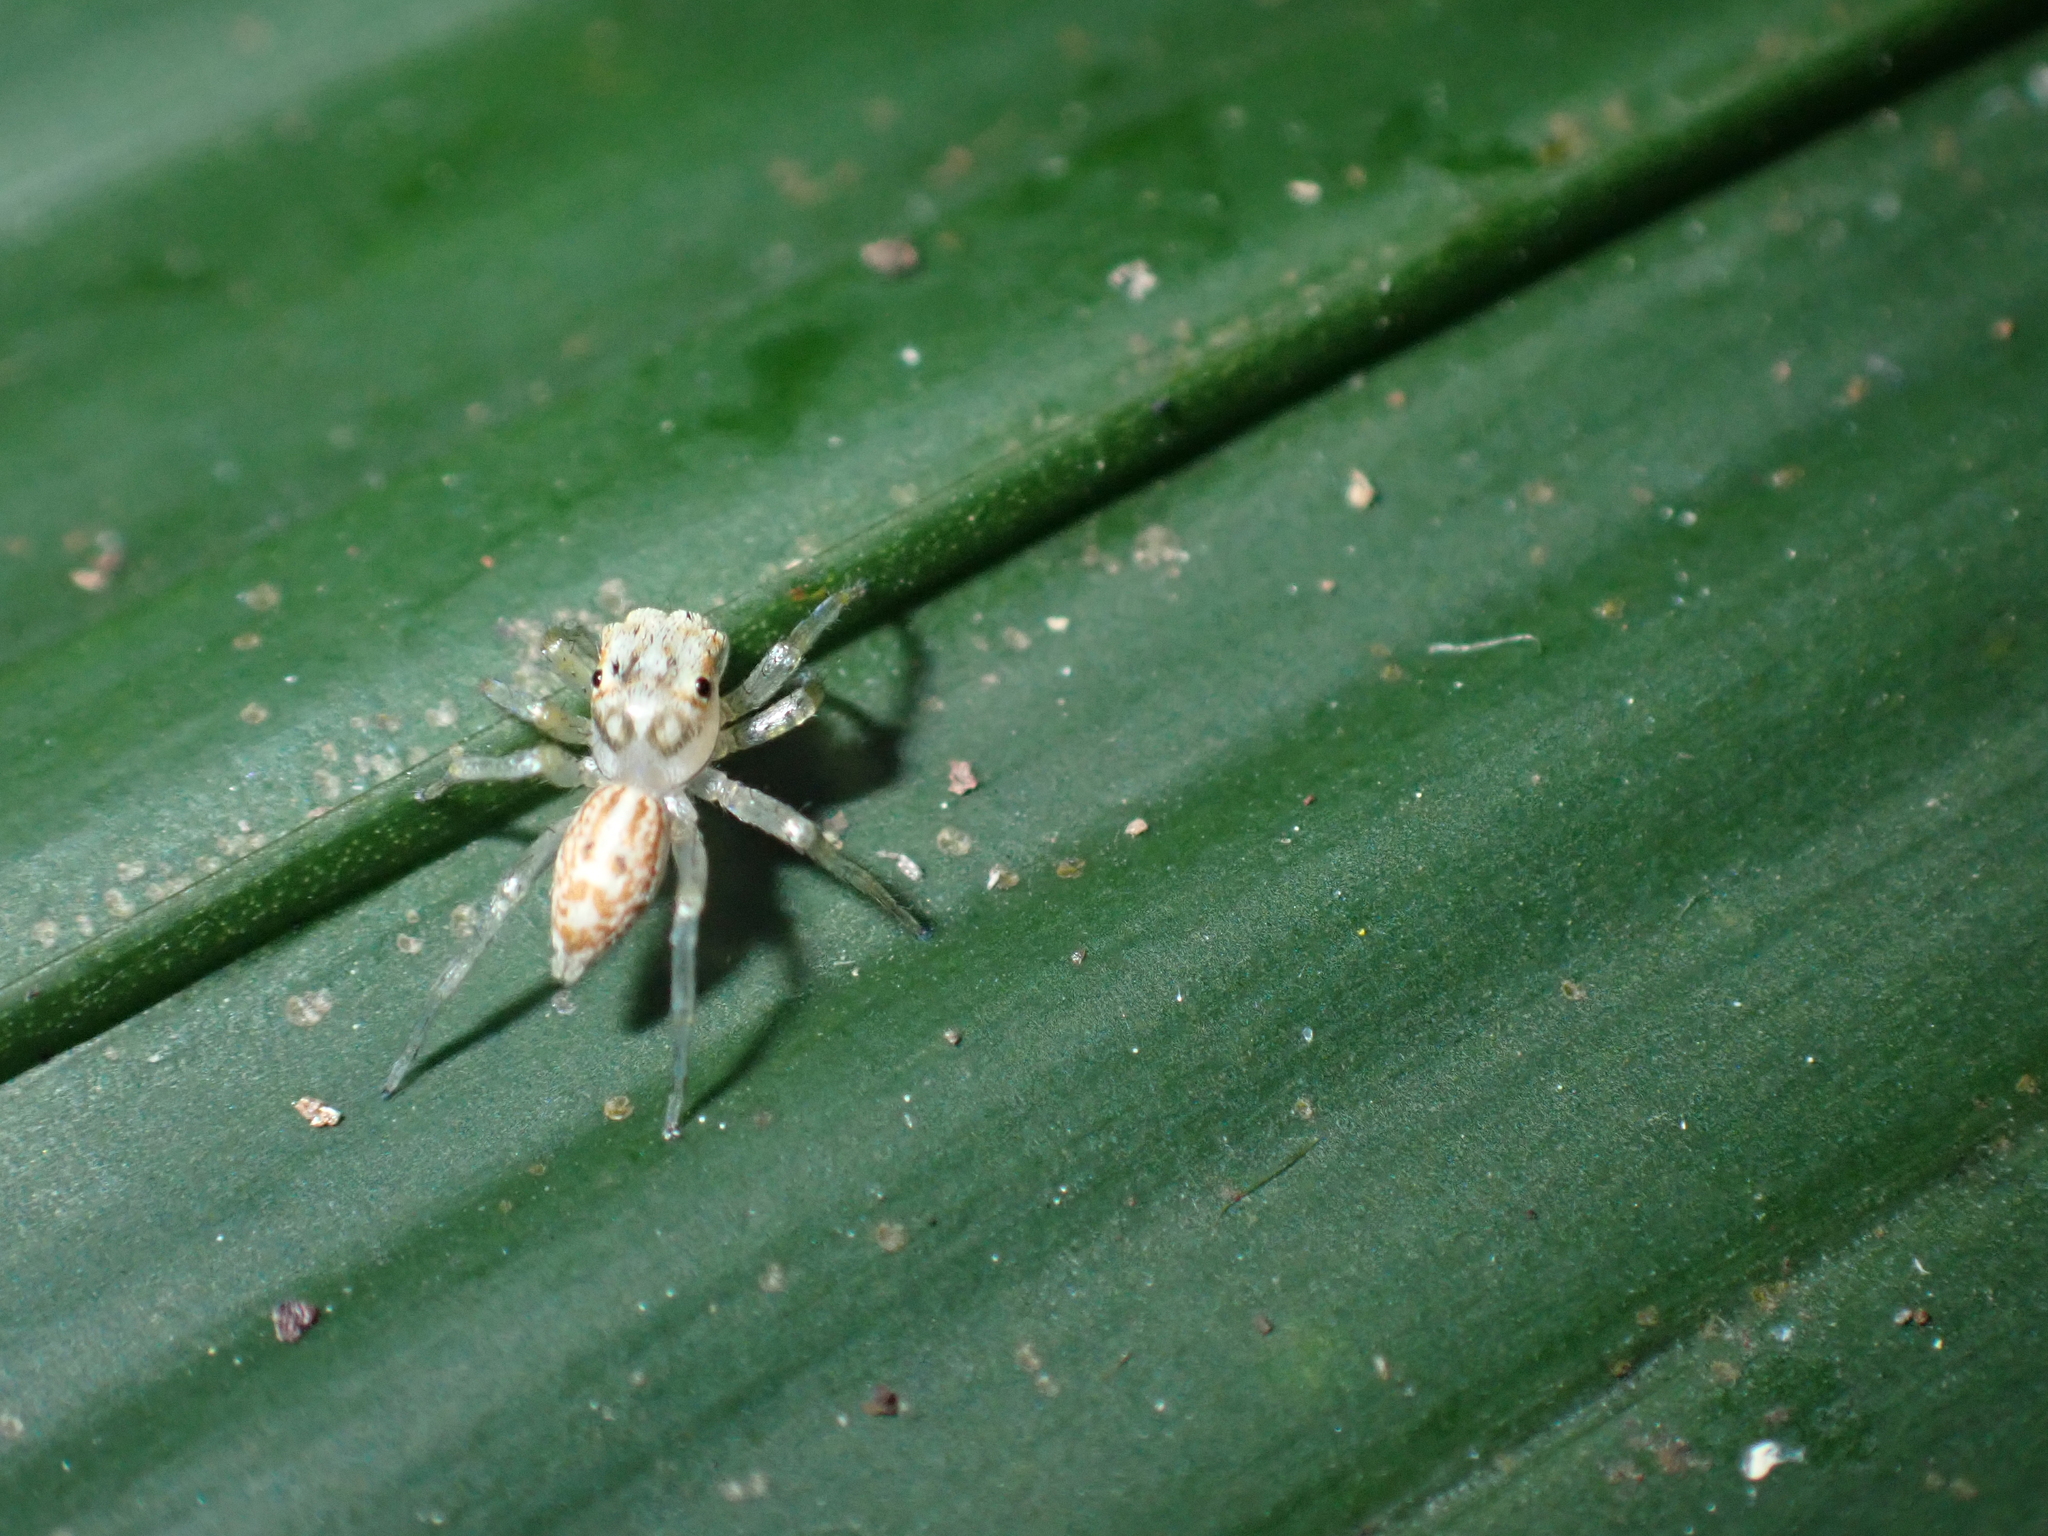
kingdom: Animalia
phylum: Arthropoda
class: Arachnida
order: Araneae
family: Salticidae
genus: Phintelloides
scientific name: Phintelloides versicolor
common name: Jumping spider
